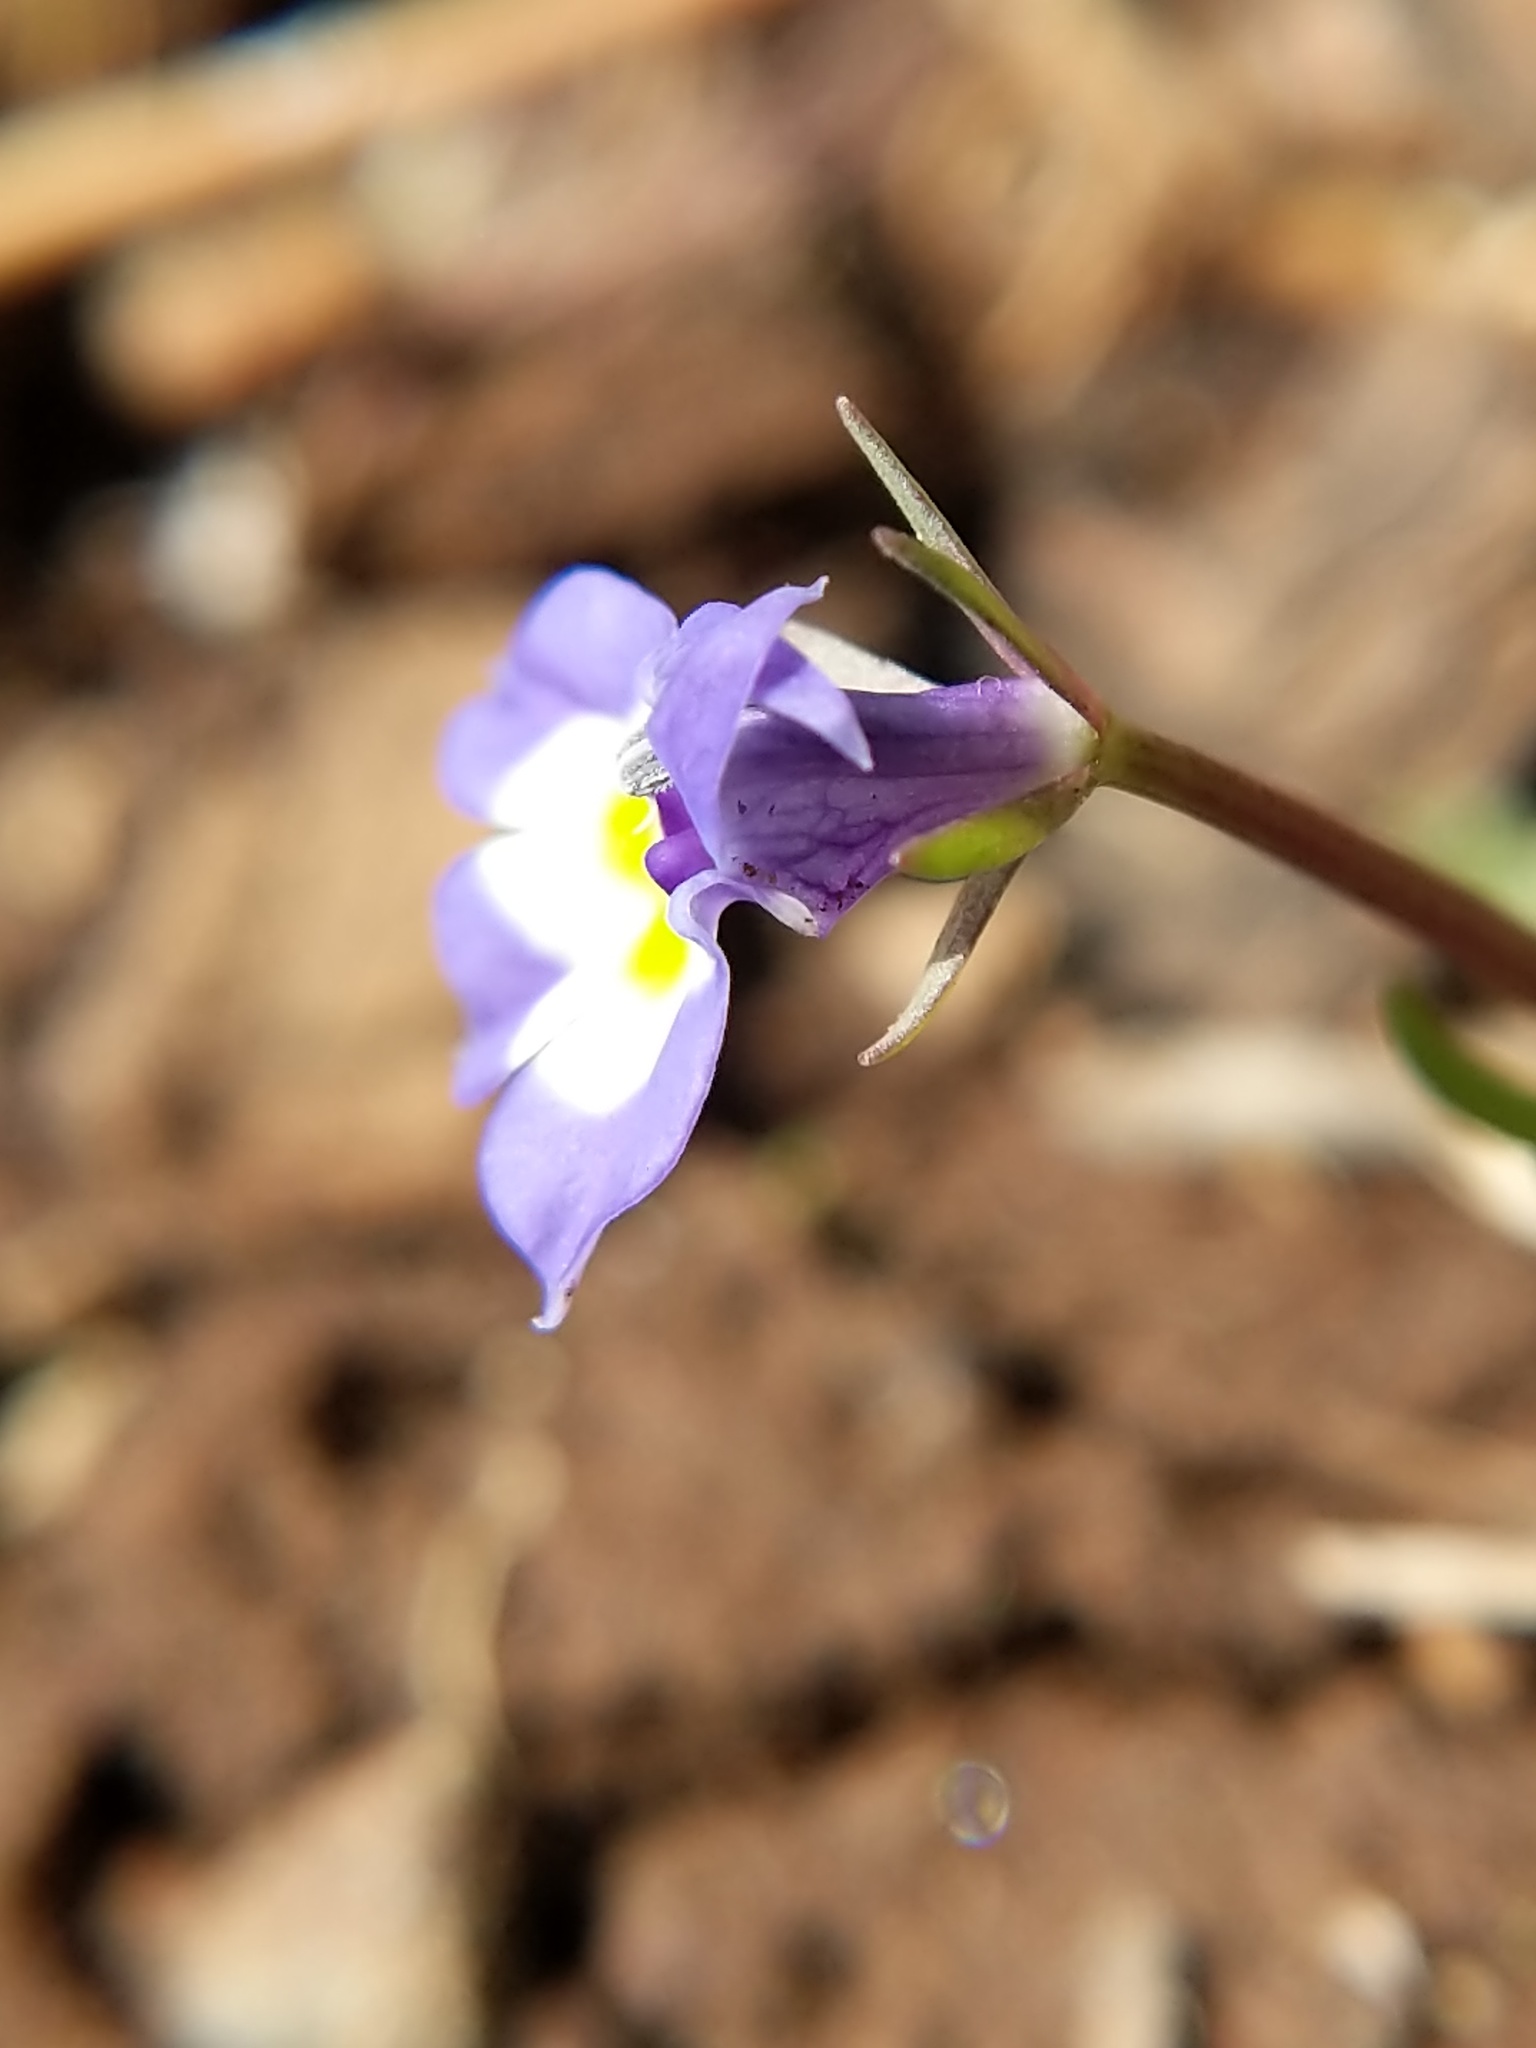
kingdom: Plantae
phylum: Tracheophyta
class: Magnoliopsida
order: Asterales
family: Campanulaceae
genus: Downingia
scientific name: Downingia bicornuta
